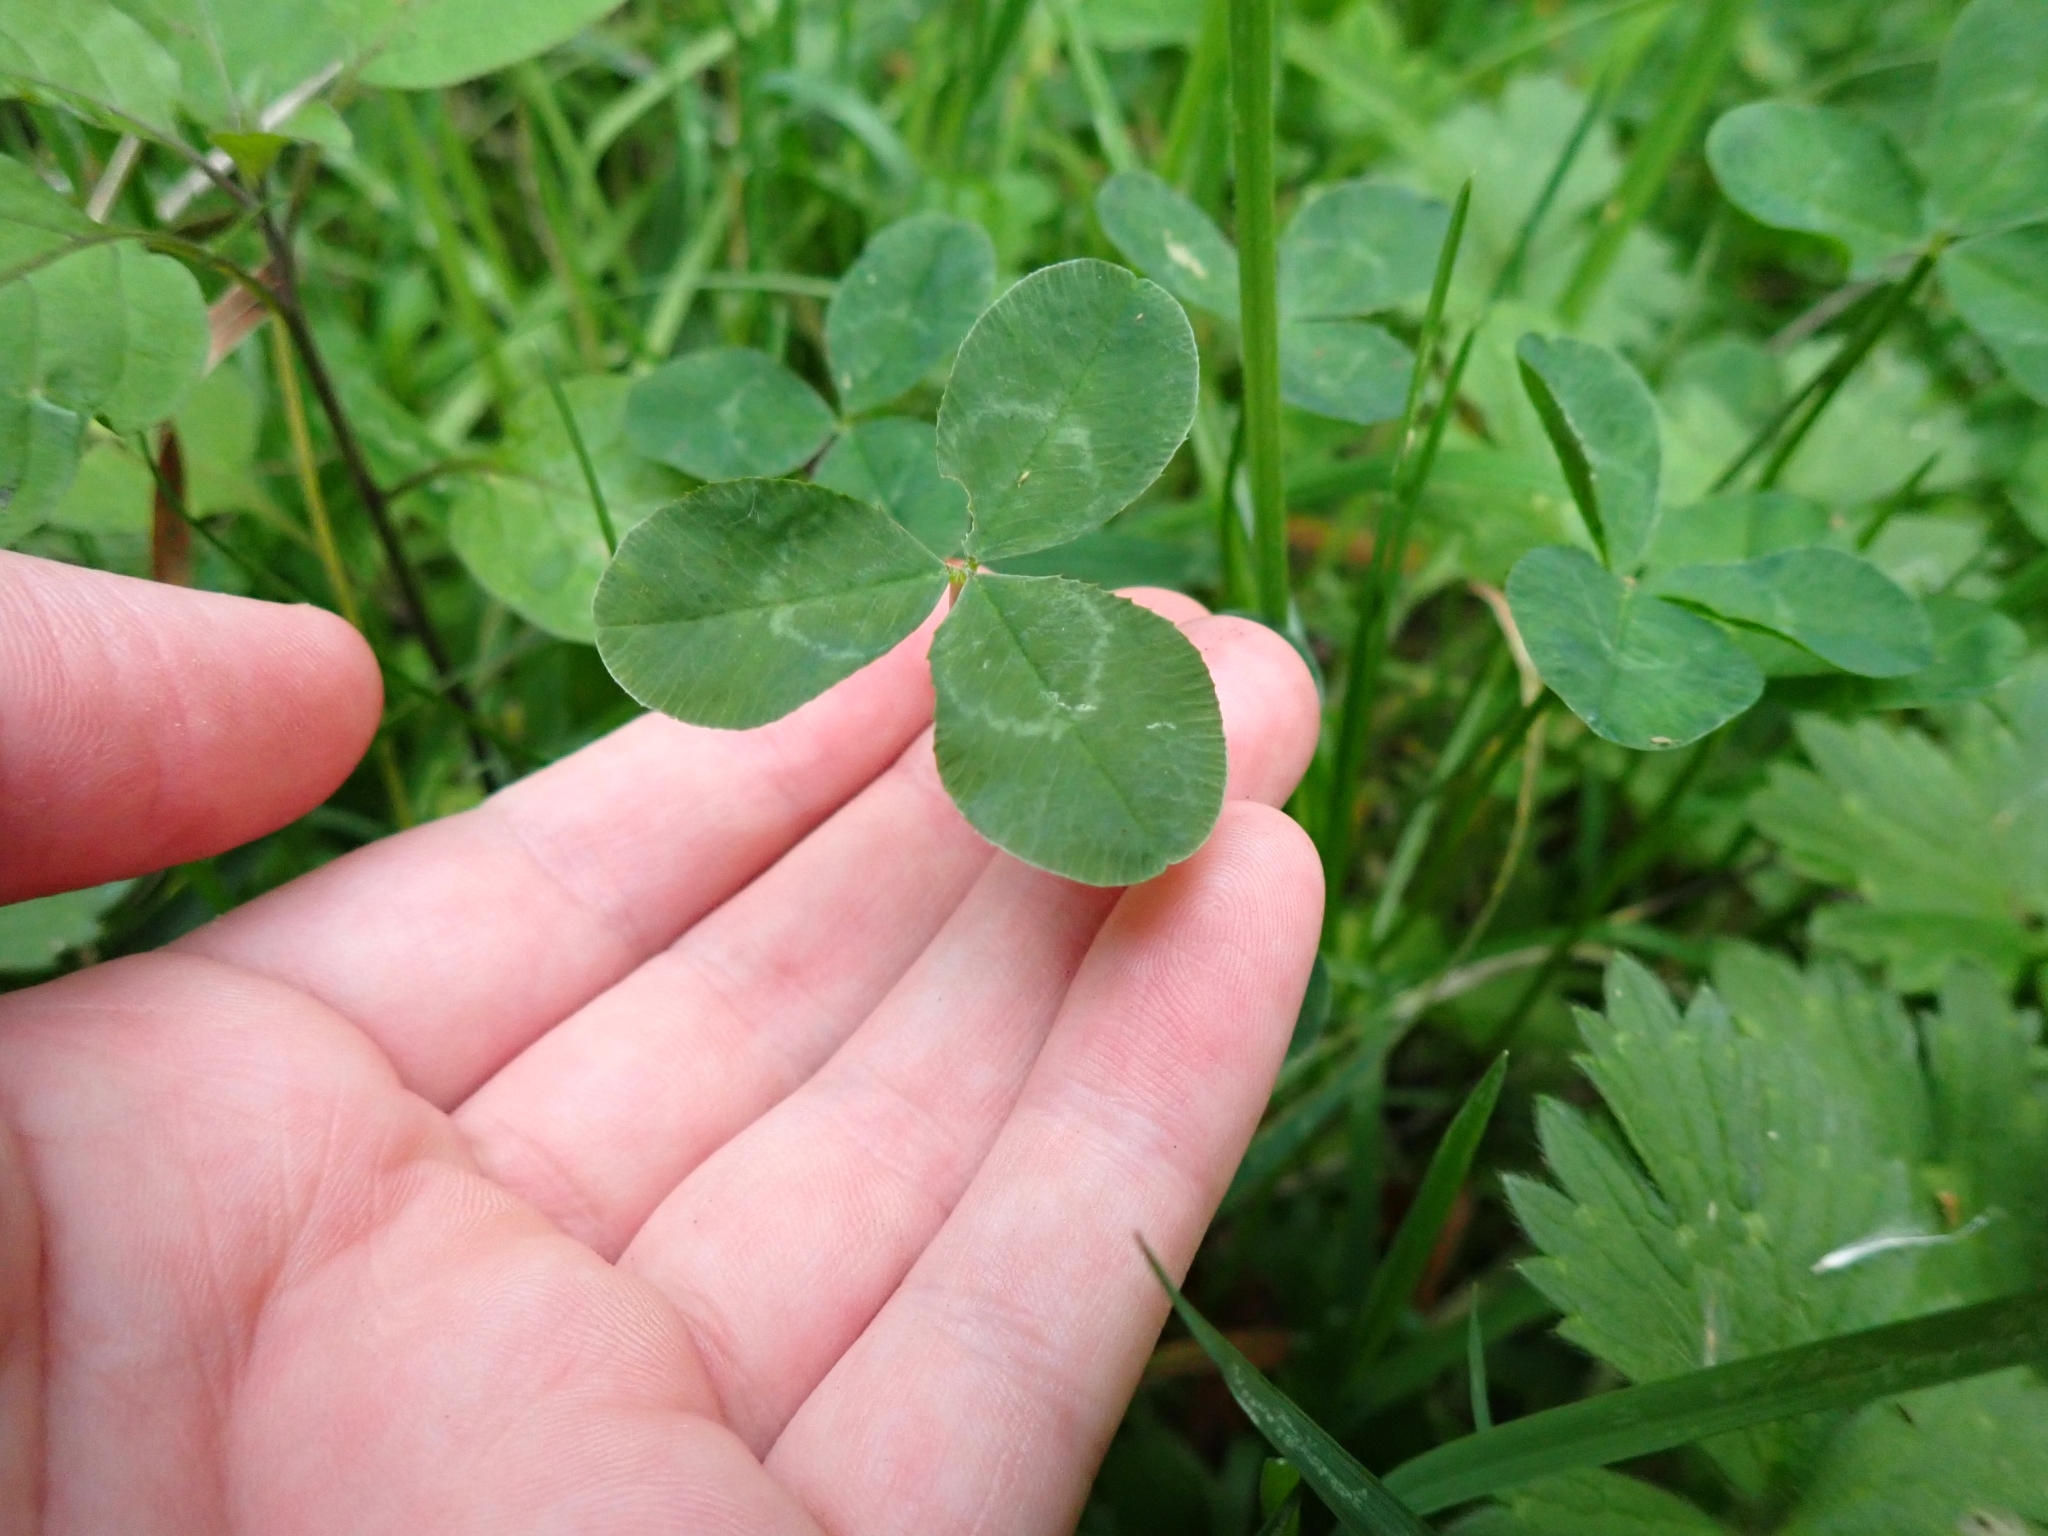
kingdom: Plantae
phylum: Tracheophyta
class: Magnoliopsida
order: Fabales
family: Fabaceae
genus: Trifolium
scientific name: Trifolium repens
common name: White clover
